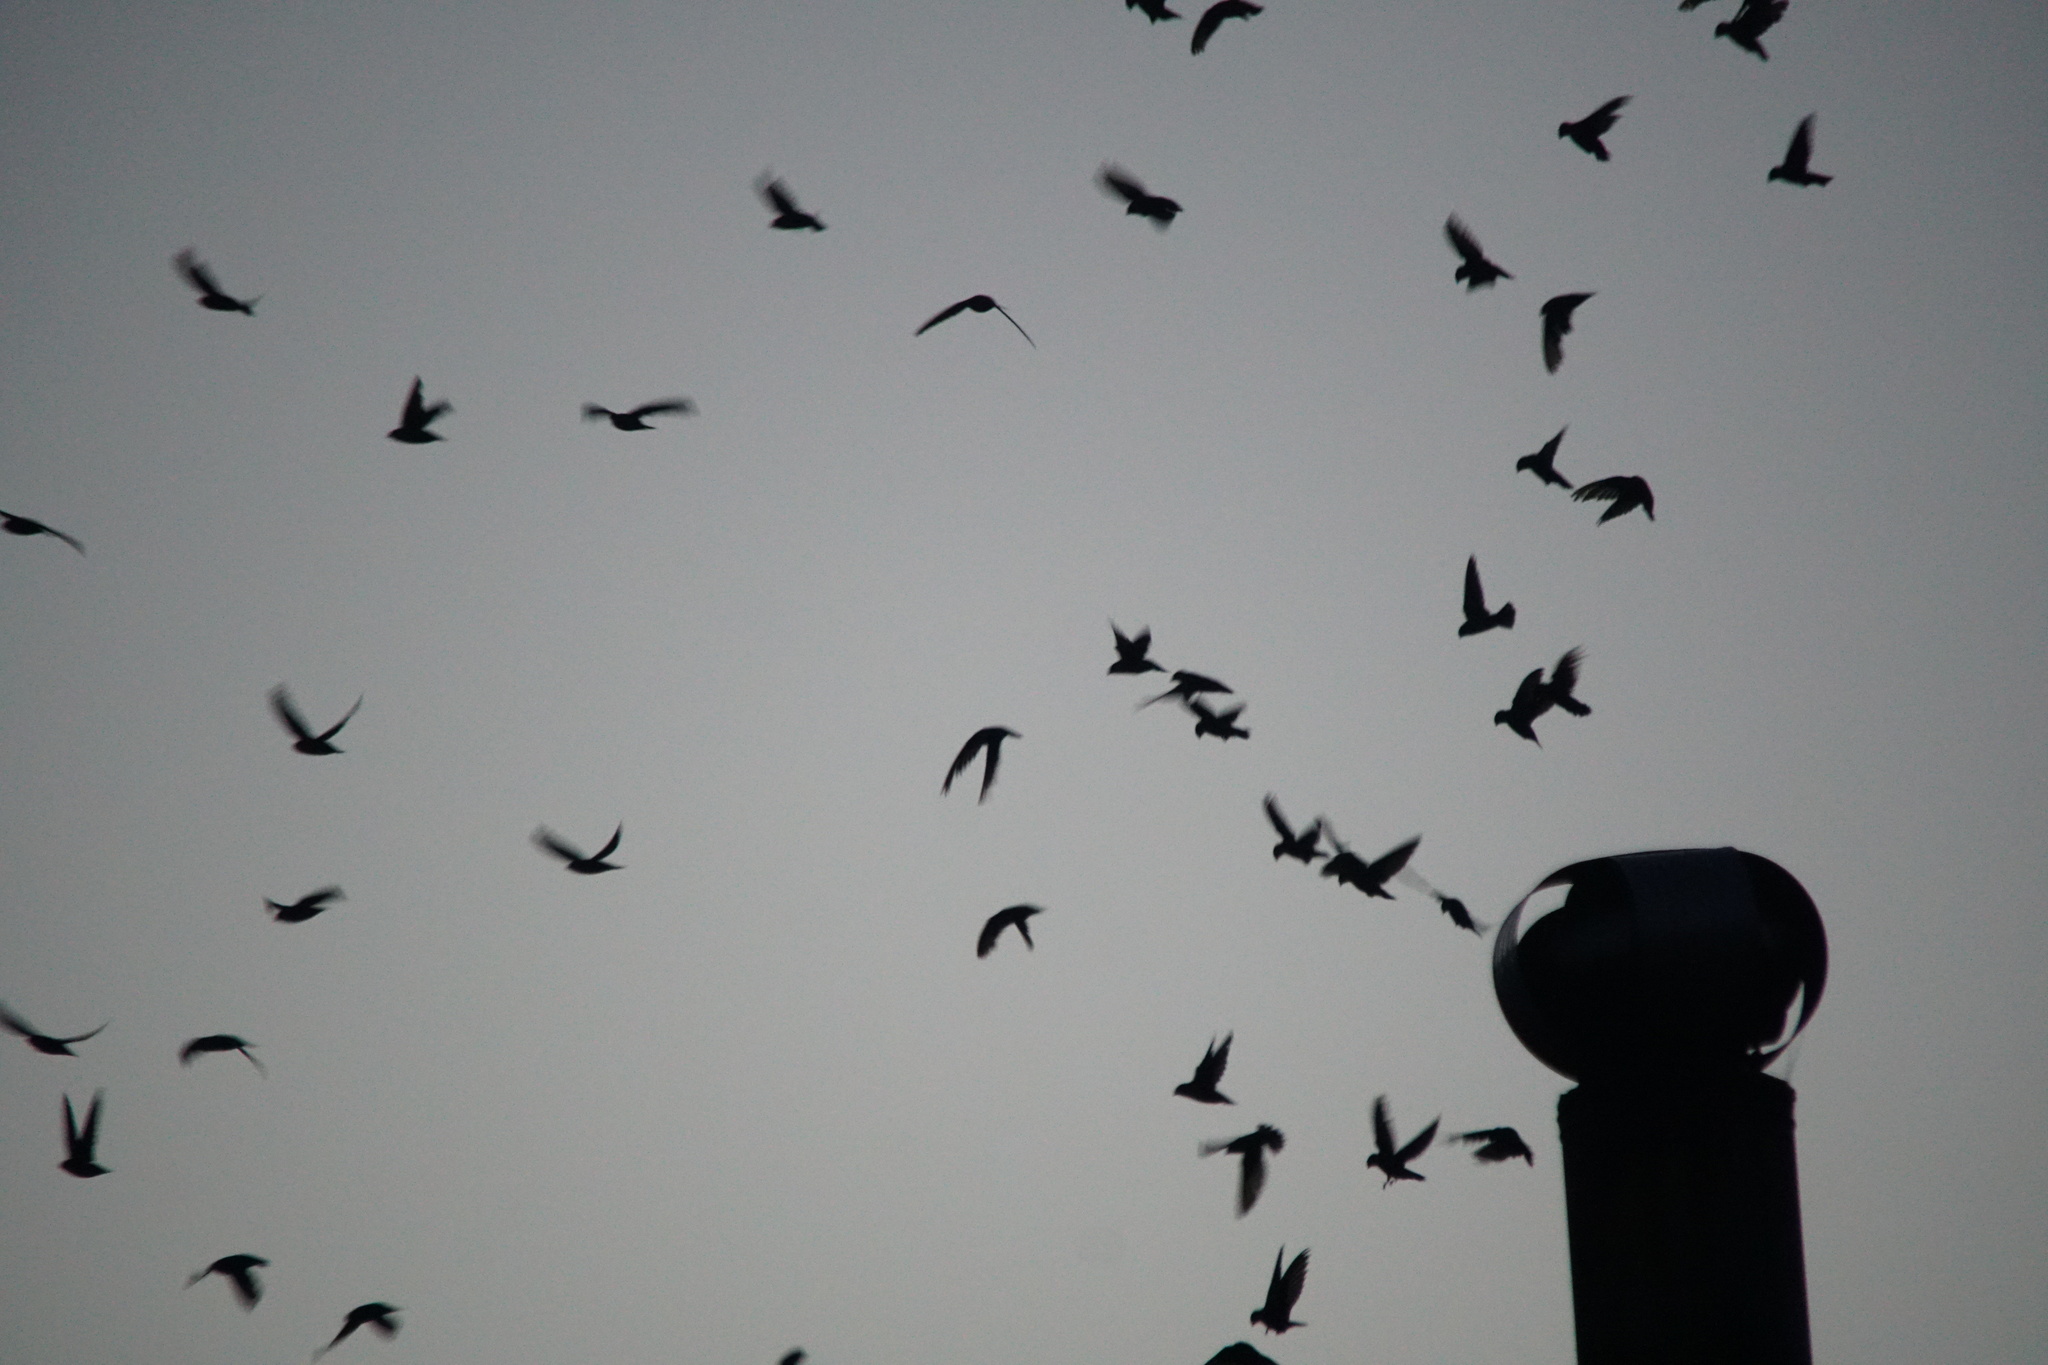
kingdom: Animalia
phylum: Chordata
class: Aves
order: Apodiformes
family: Apodidae
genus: Chaetura
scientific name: Chaetura vauxi
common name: Vaux's swift
